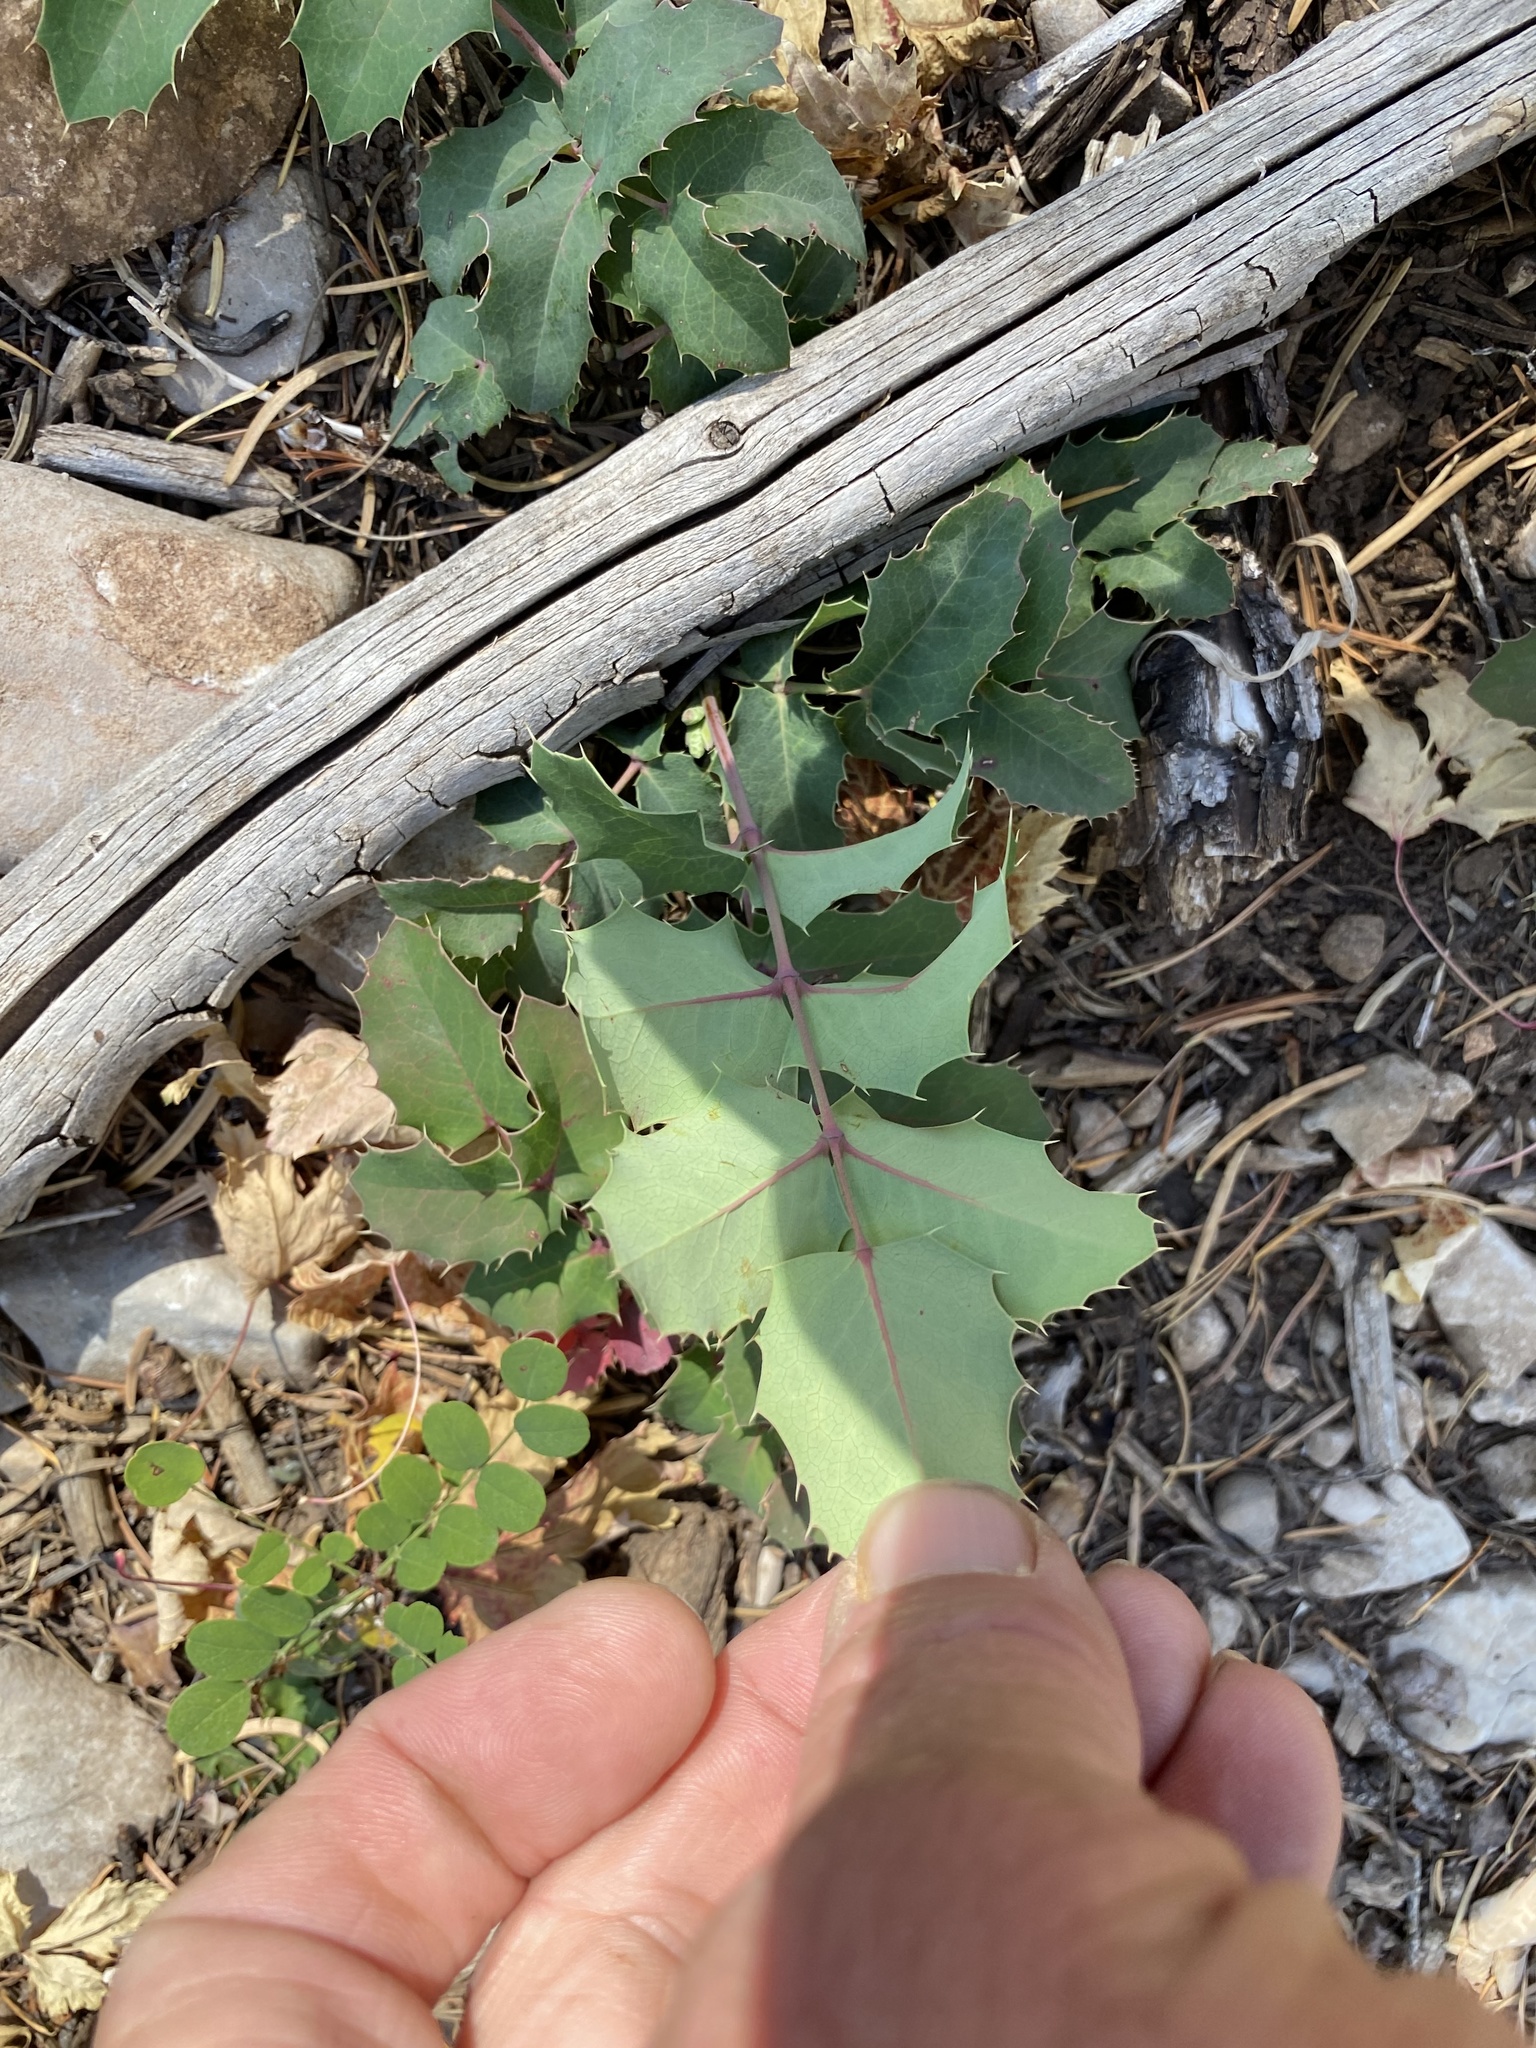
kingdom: Plantae
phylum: Tracheophyta
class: Magnoliopsida
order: Ranunculales
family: Berberidaceae
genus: Mahonia
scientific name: Mahonia repens
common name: Creeping oregon-grape
